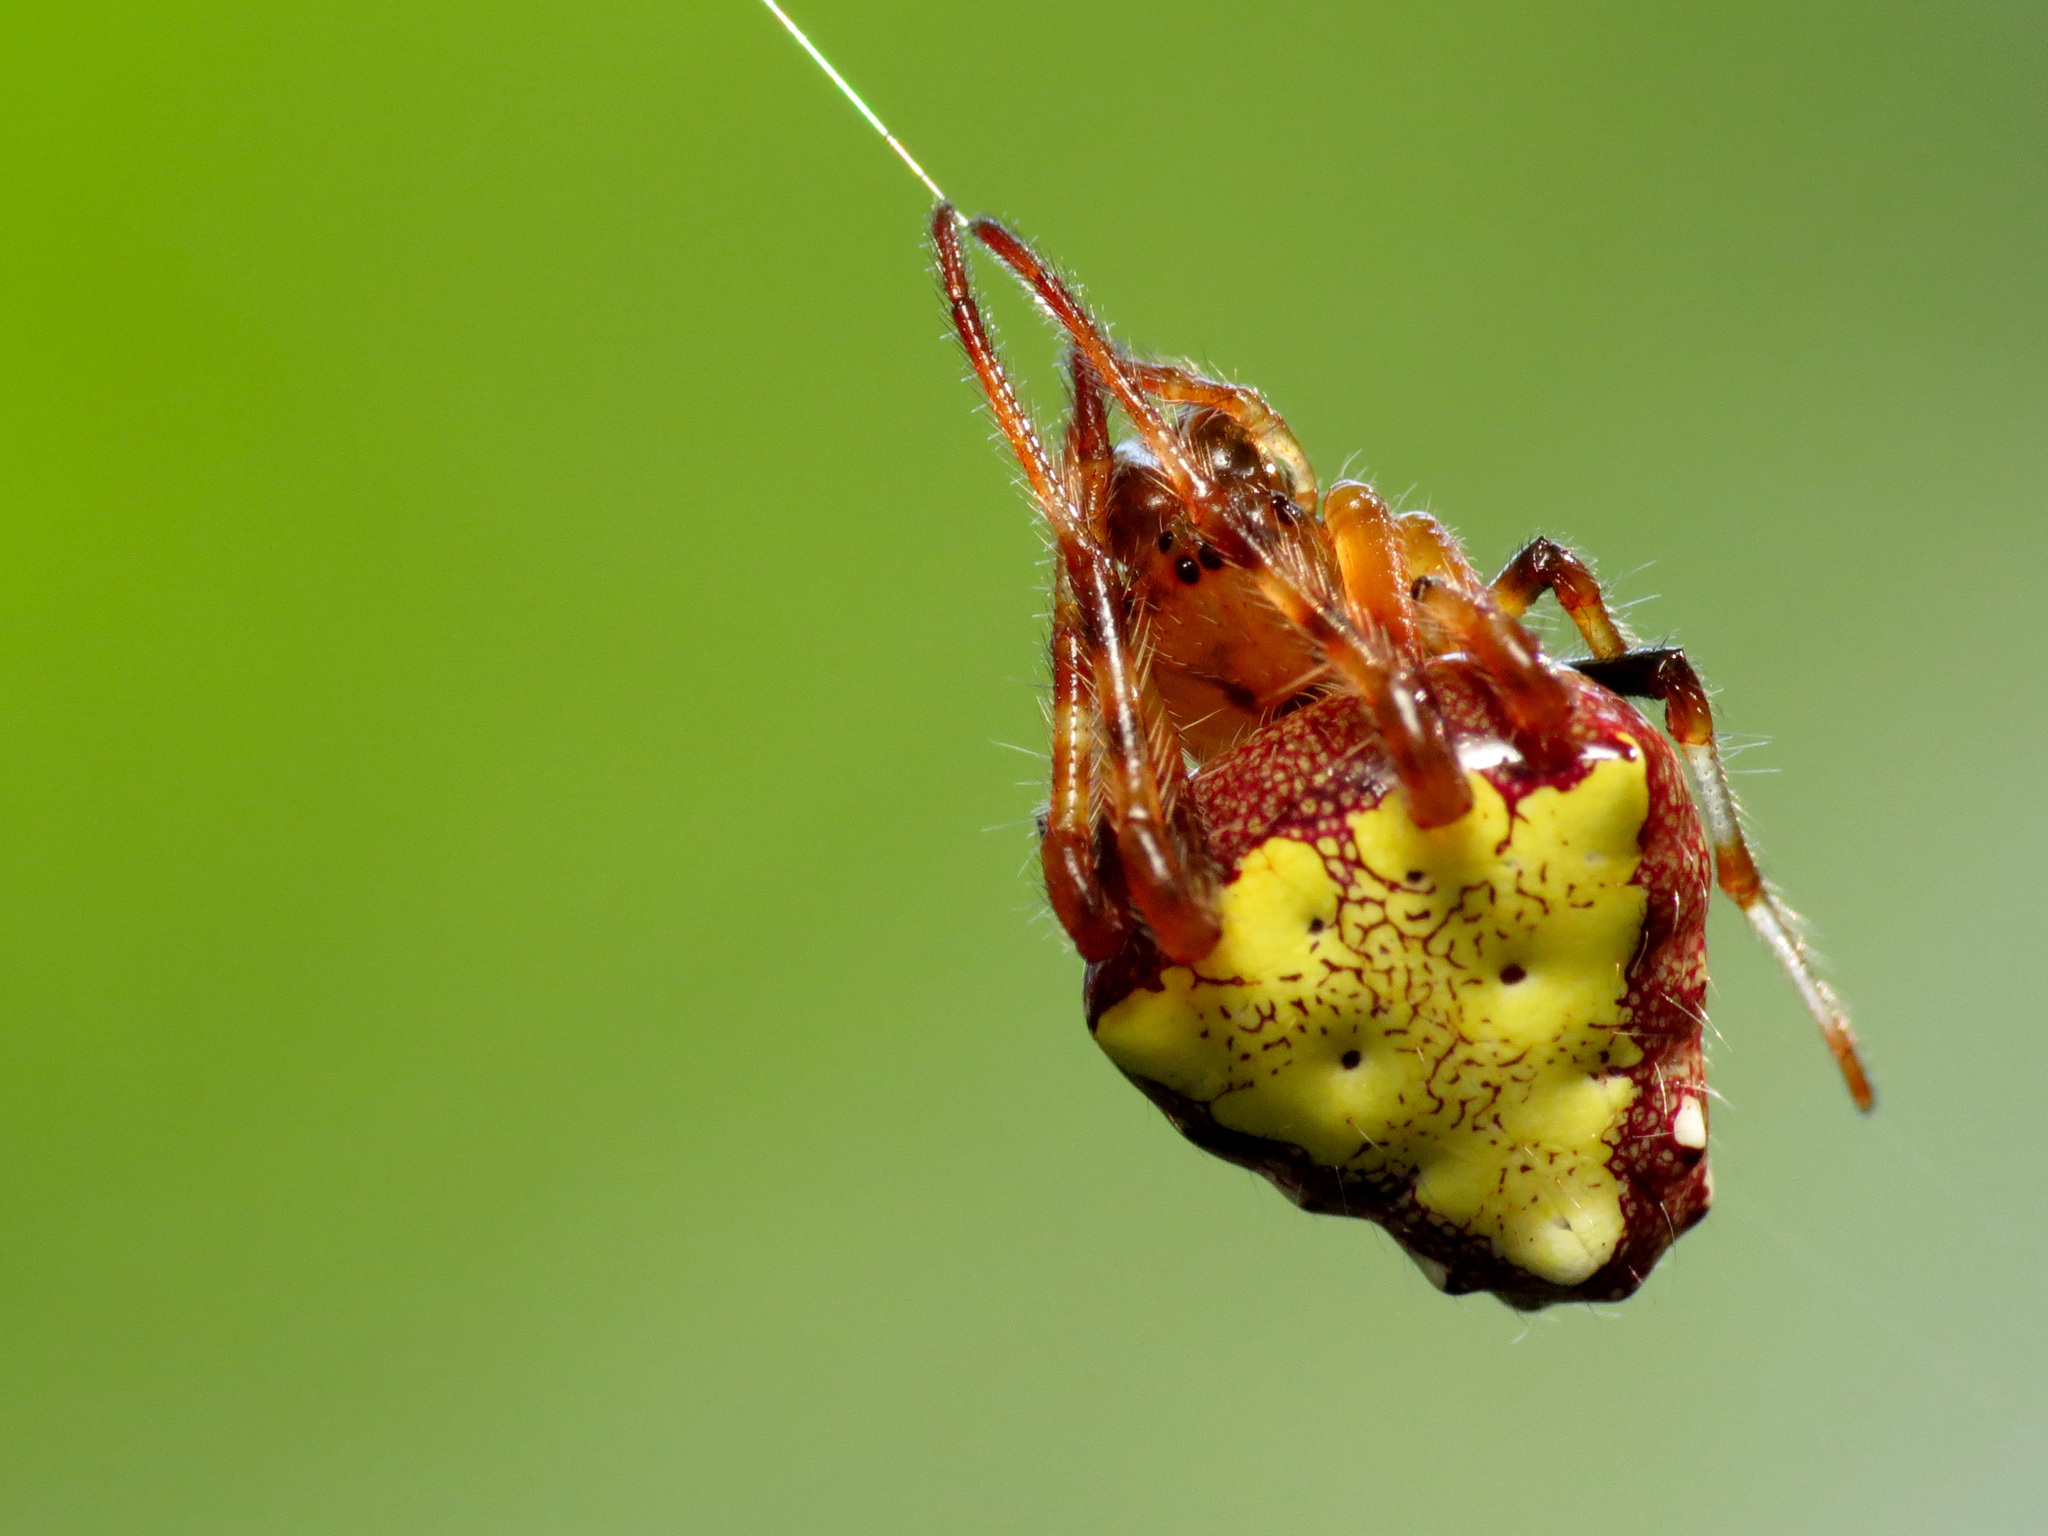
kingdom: Animalia
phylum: Arthropoda
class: Arachnida
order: Araneae
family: Araneidae
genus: Verrucosa
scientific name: Verrucosa arenata
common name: Orb weavers
